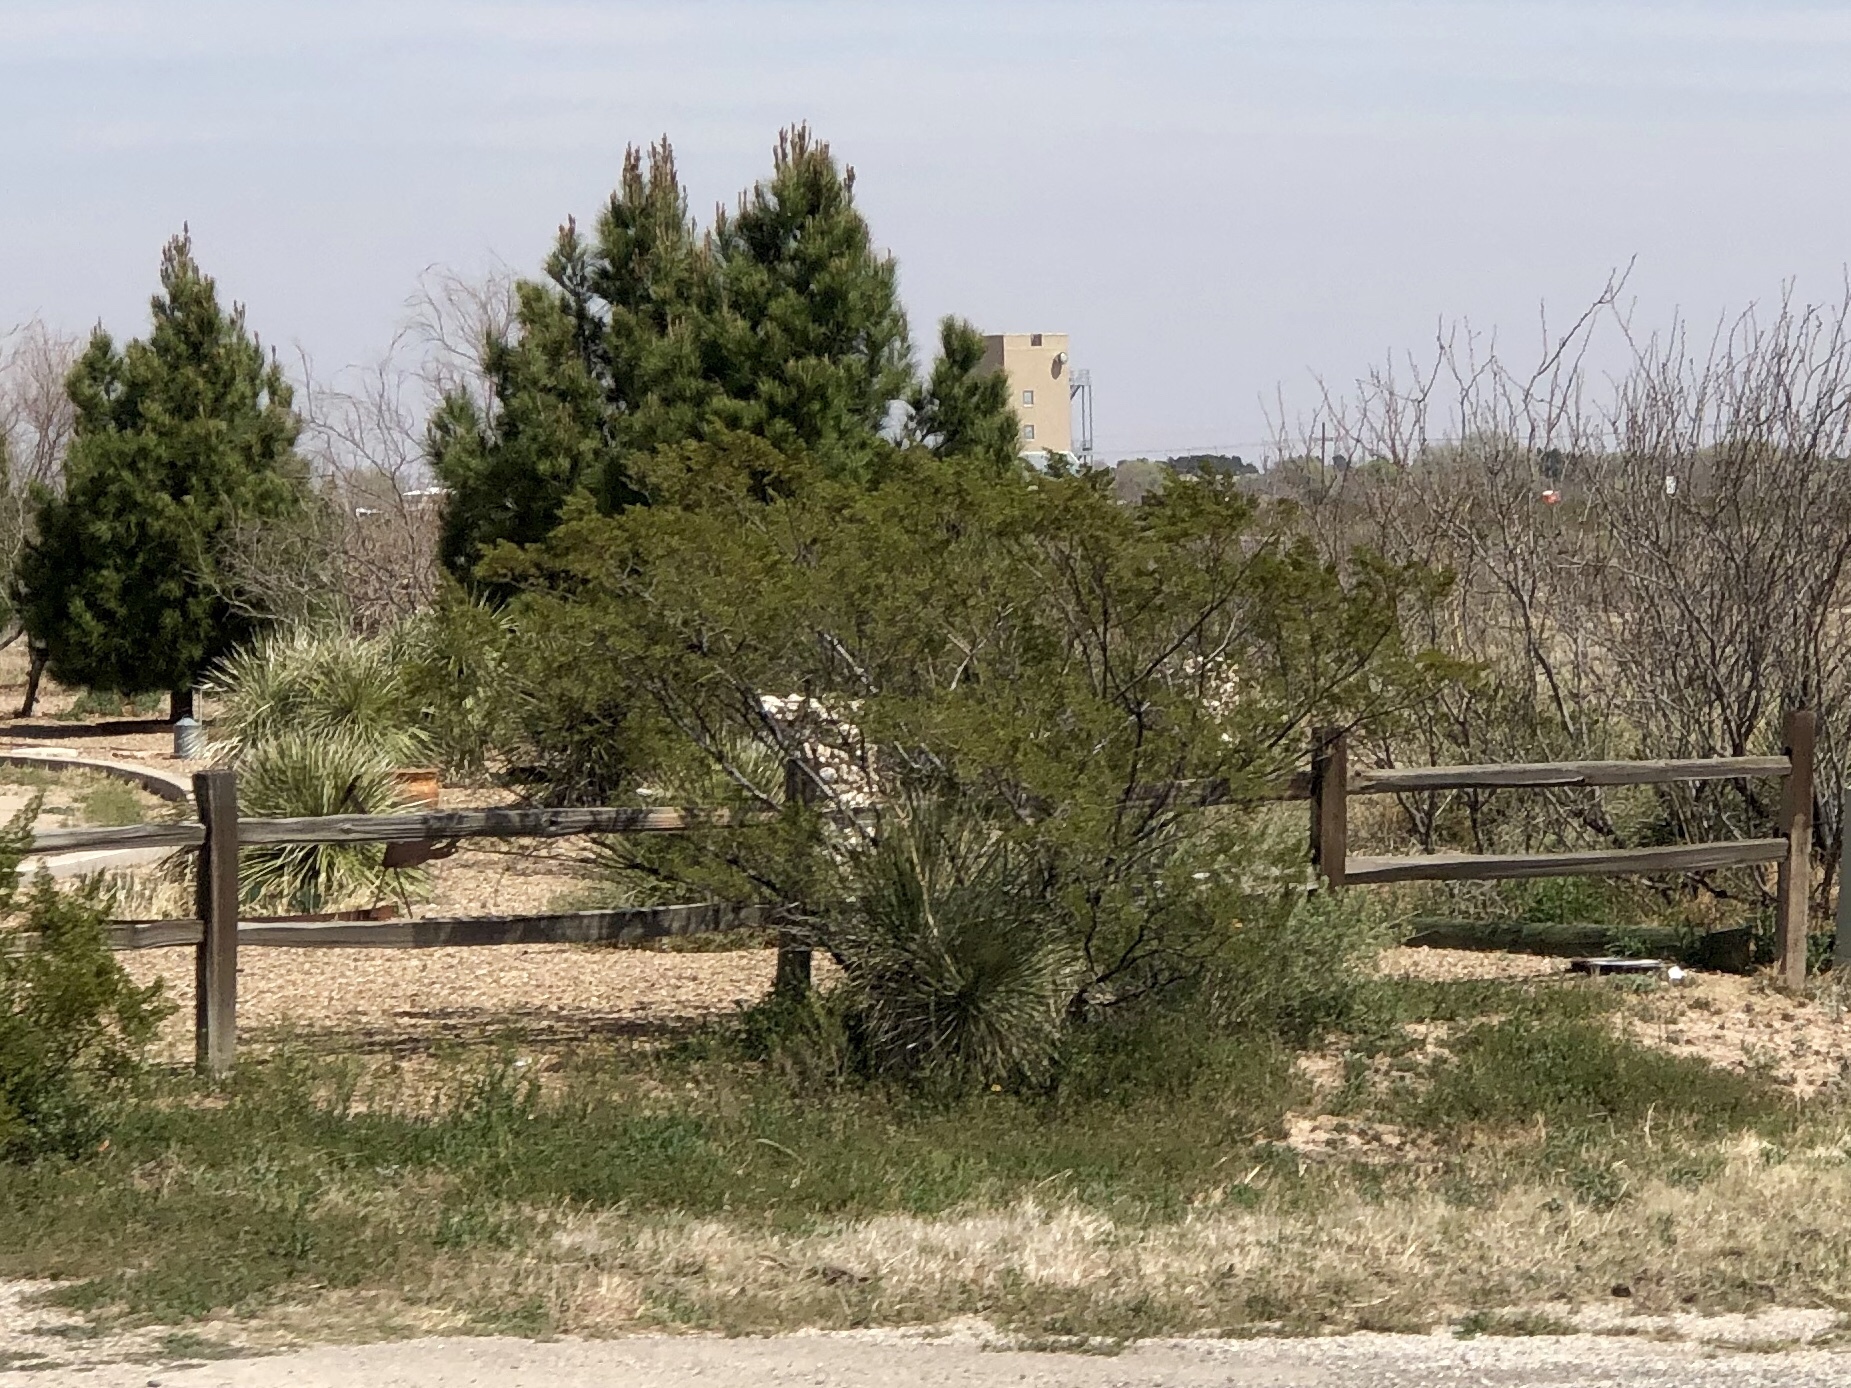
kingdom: Plantae
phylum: Tracheophyta
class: Magnoliopsida
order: Zygophyllales
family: Zygophyllaceae
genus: Larrea
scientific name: Larrea tridentata
